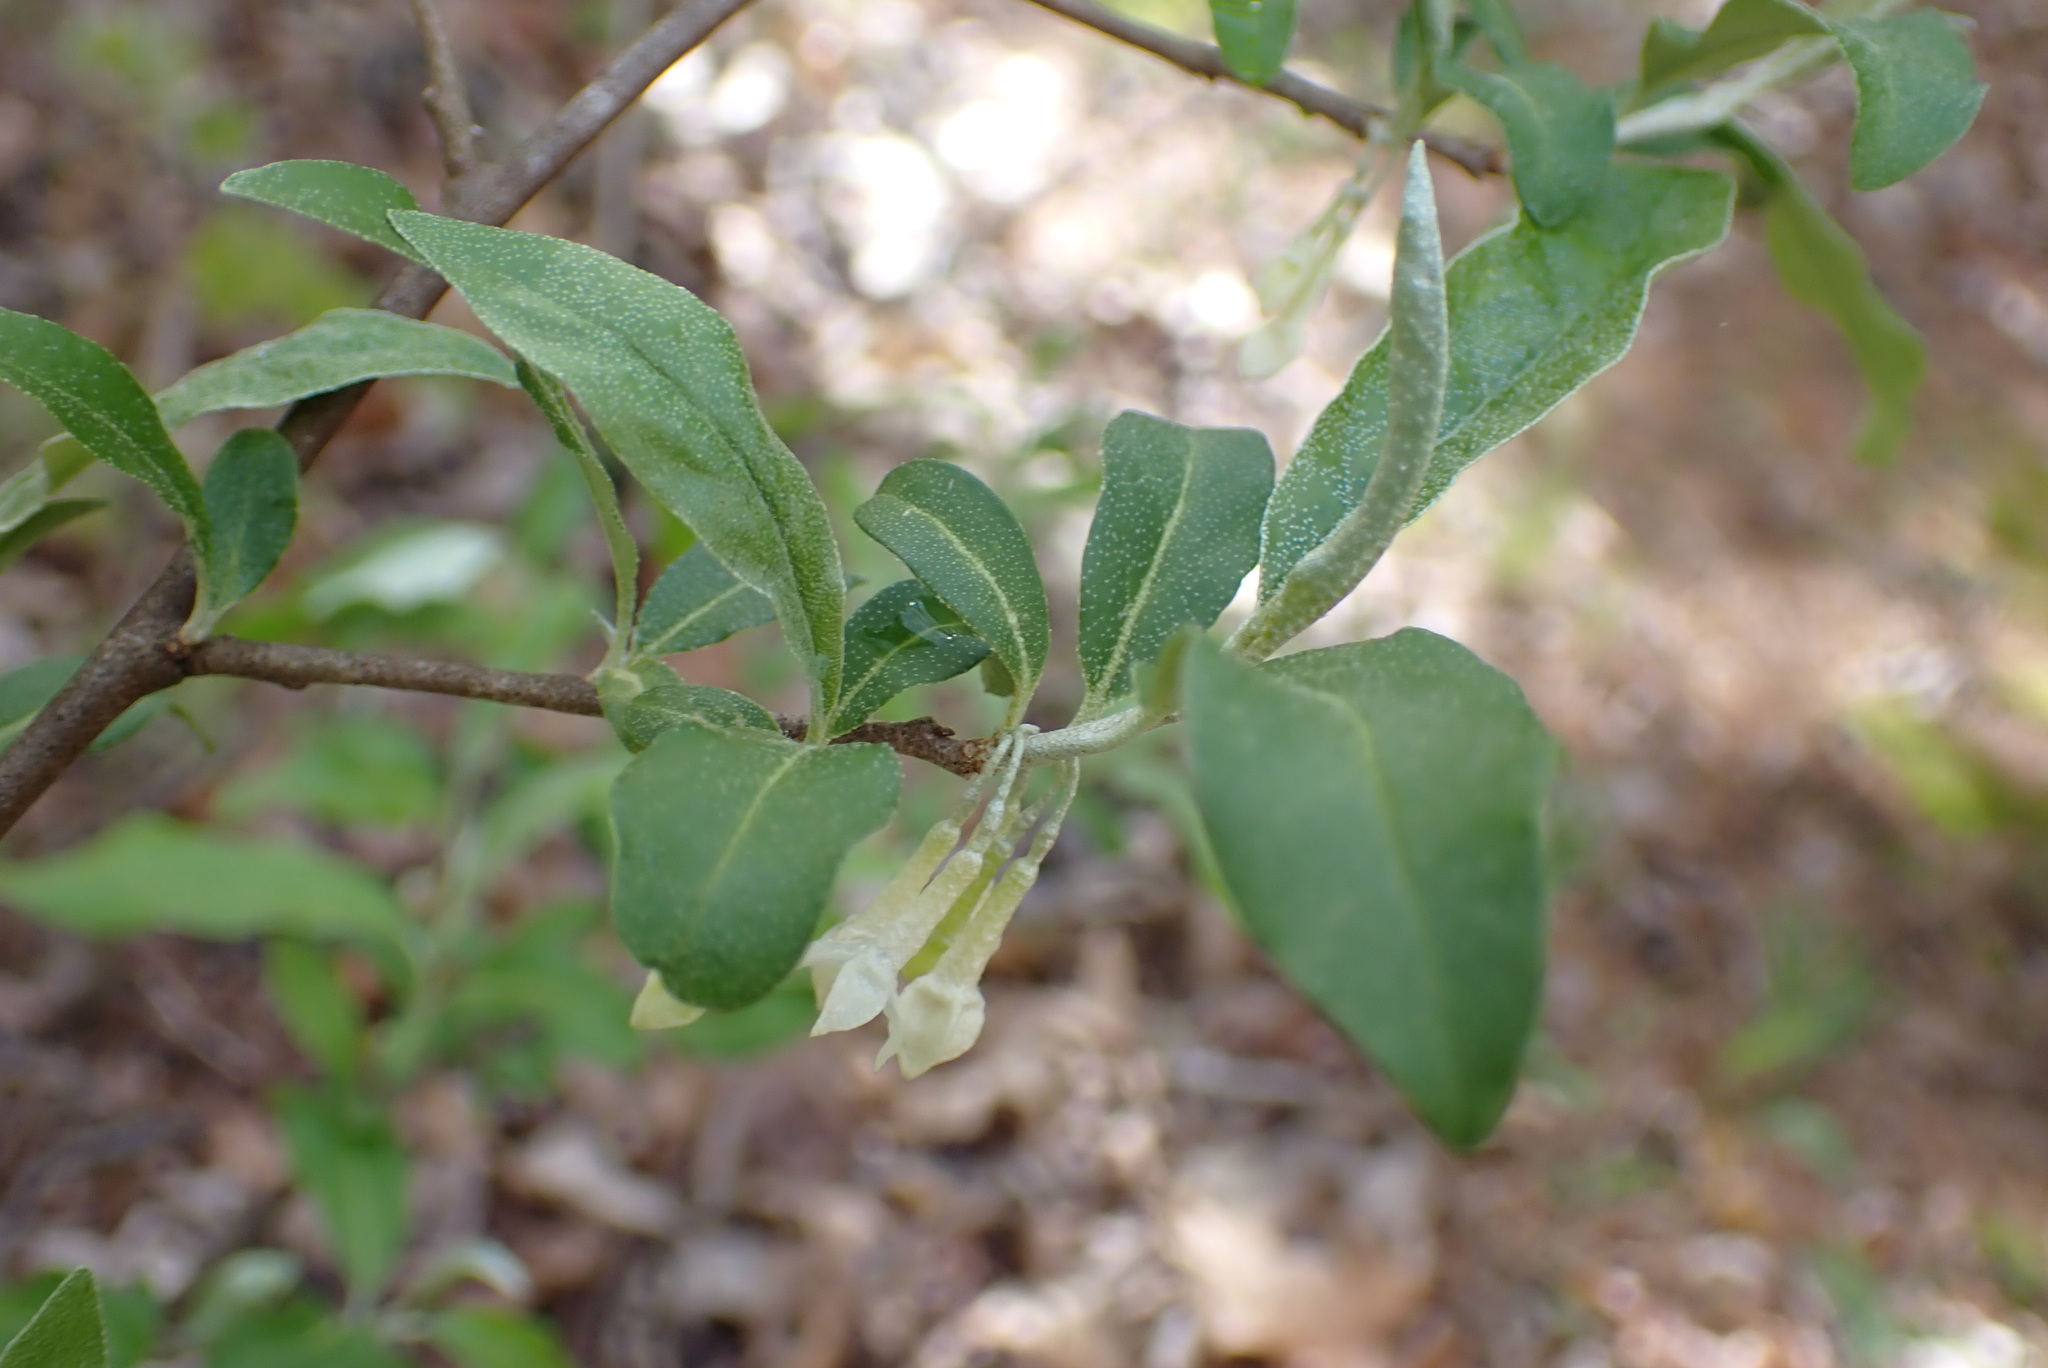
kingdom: Plantae
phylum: Tracheophyta
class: Magnoliopsida
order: Rosales
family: Elaeagnaceae
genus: Elaeagnus
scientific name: Elaeagnus umbellata
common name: Autumn olive
